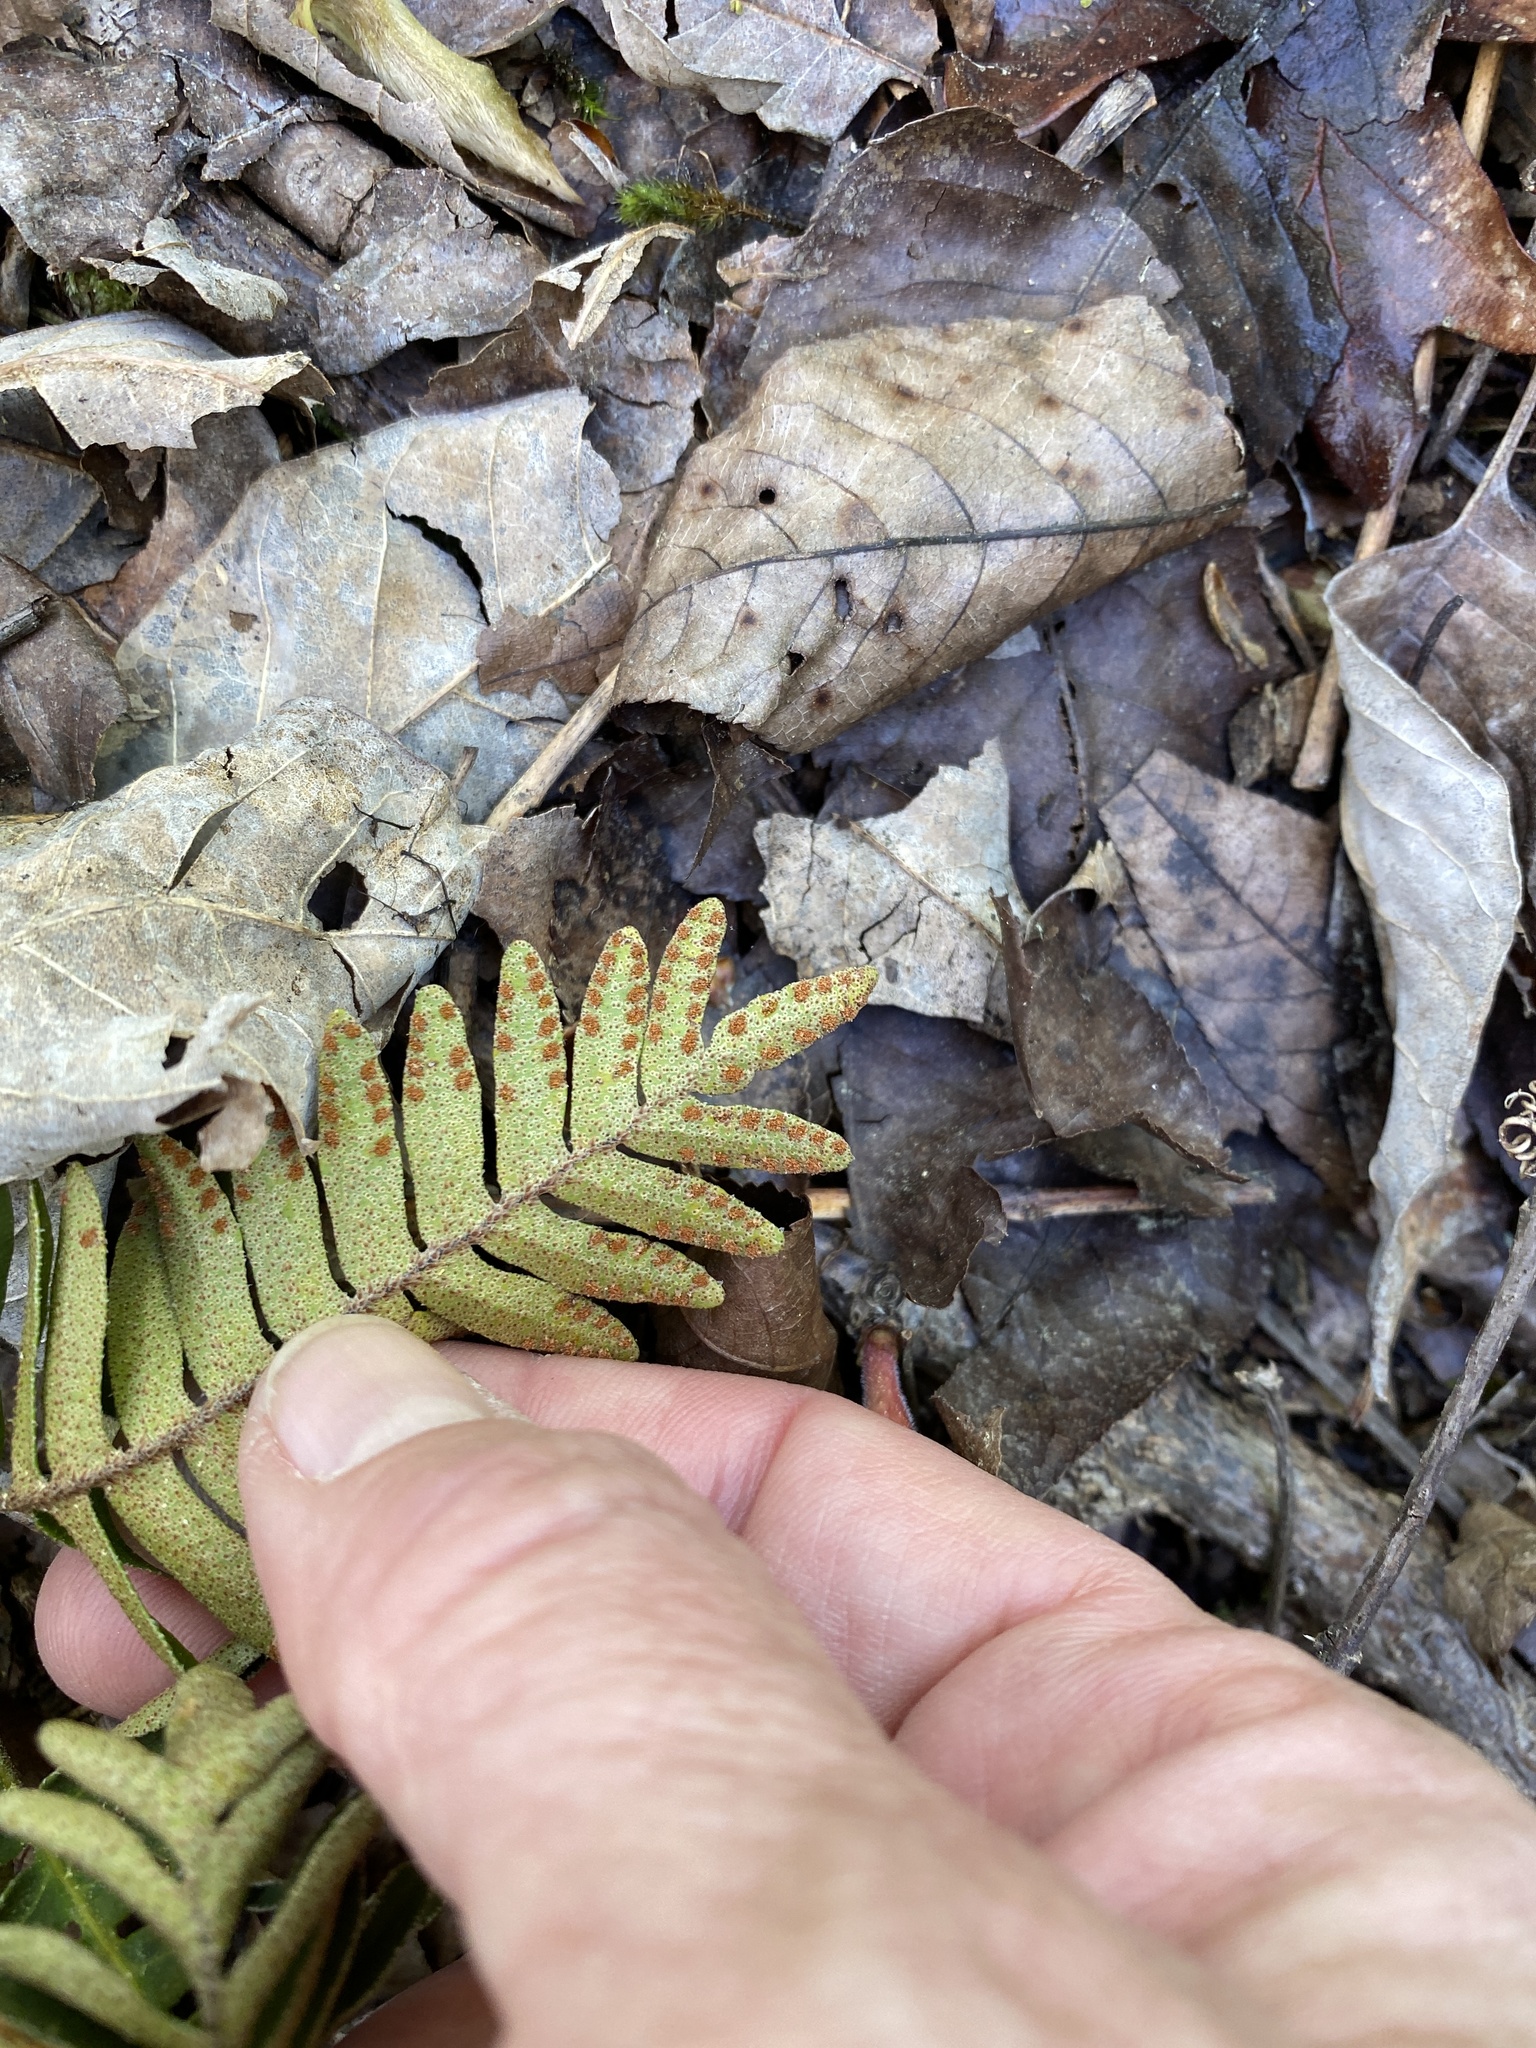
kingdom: Plantae
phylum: Tracheophyta
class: Polypodiopsida
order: Polypodiales
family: Polypodiaceae
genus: Pleopeltis
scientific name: Pleopeltis michauxiana
